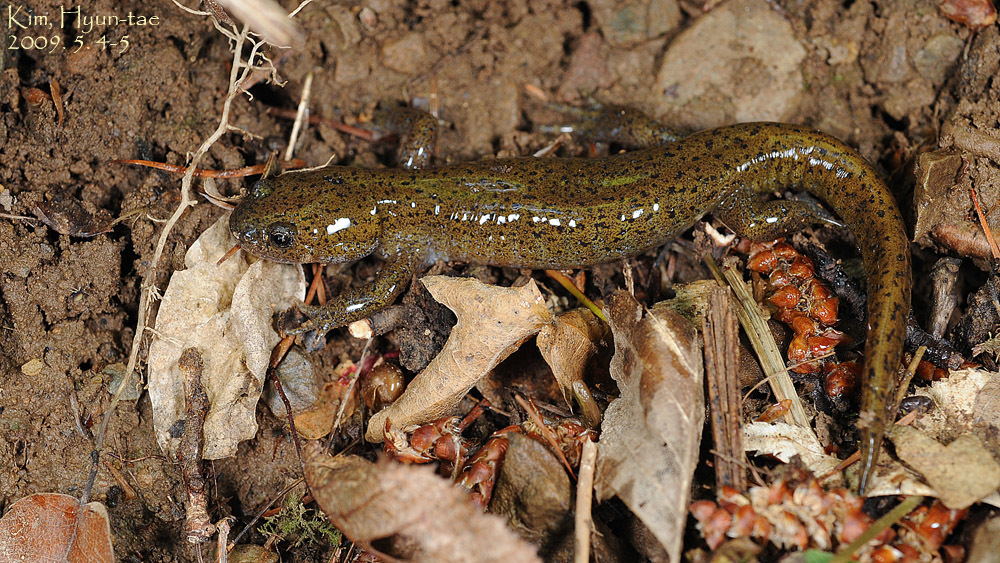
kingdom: Animalia
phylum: Chordata
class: Amphibia
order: Caudata
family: Hynobiidae
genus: Hynobius
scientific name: Hynobius leechii
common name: Gensan salamander
